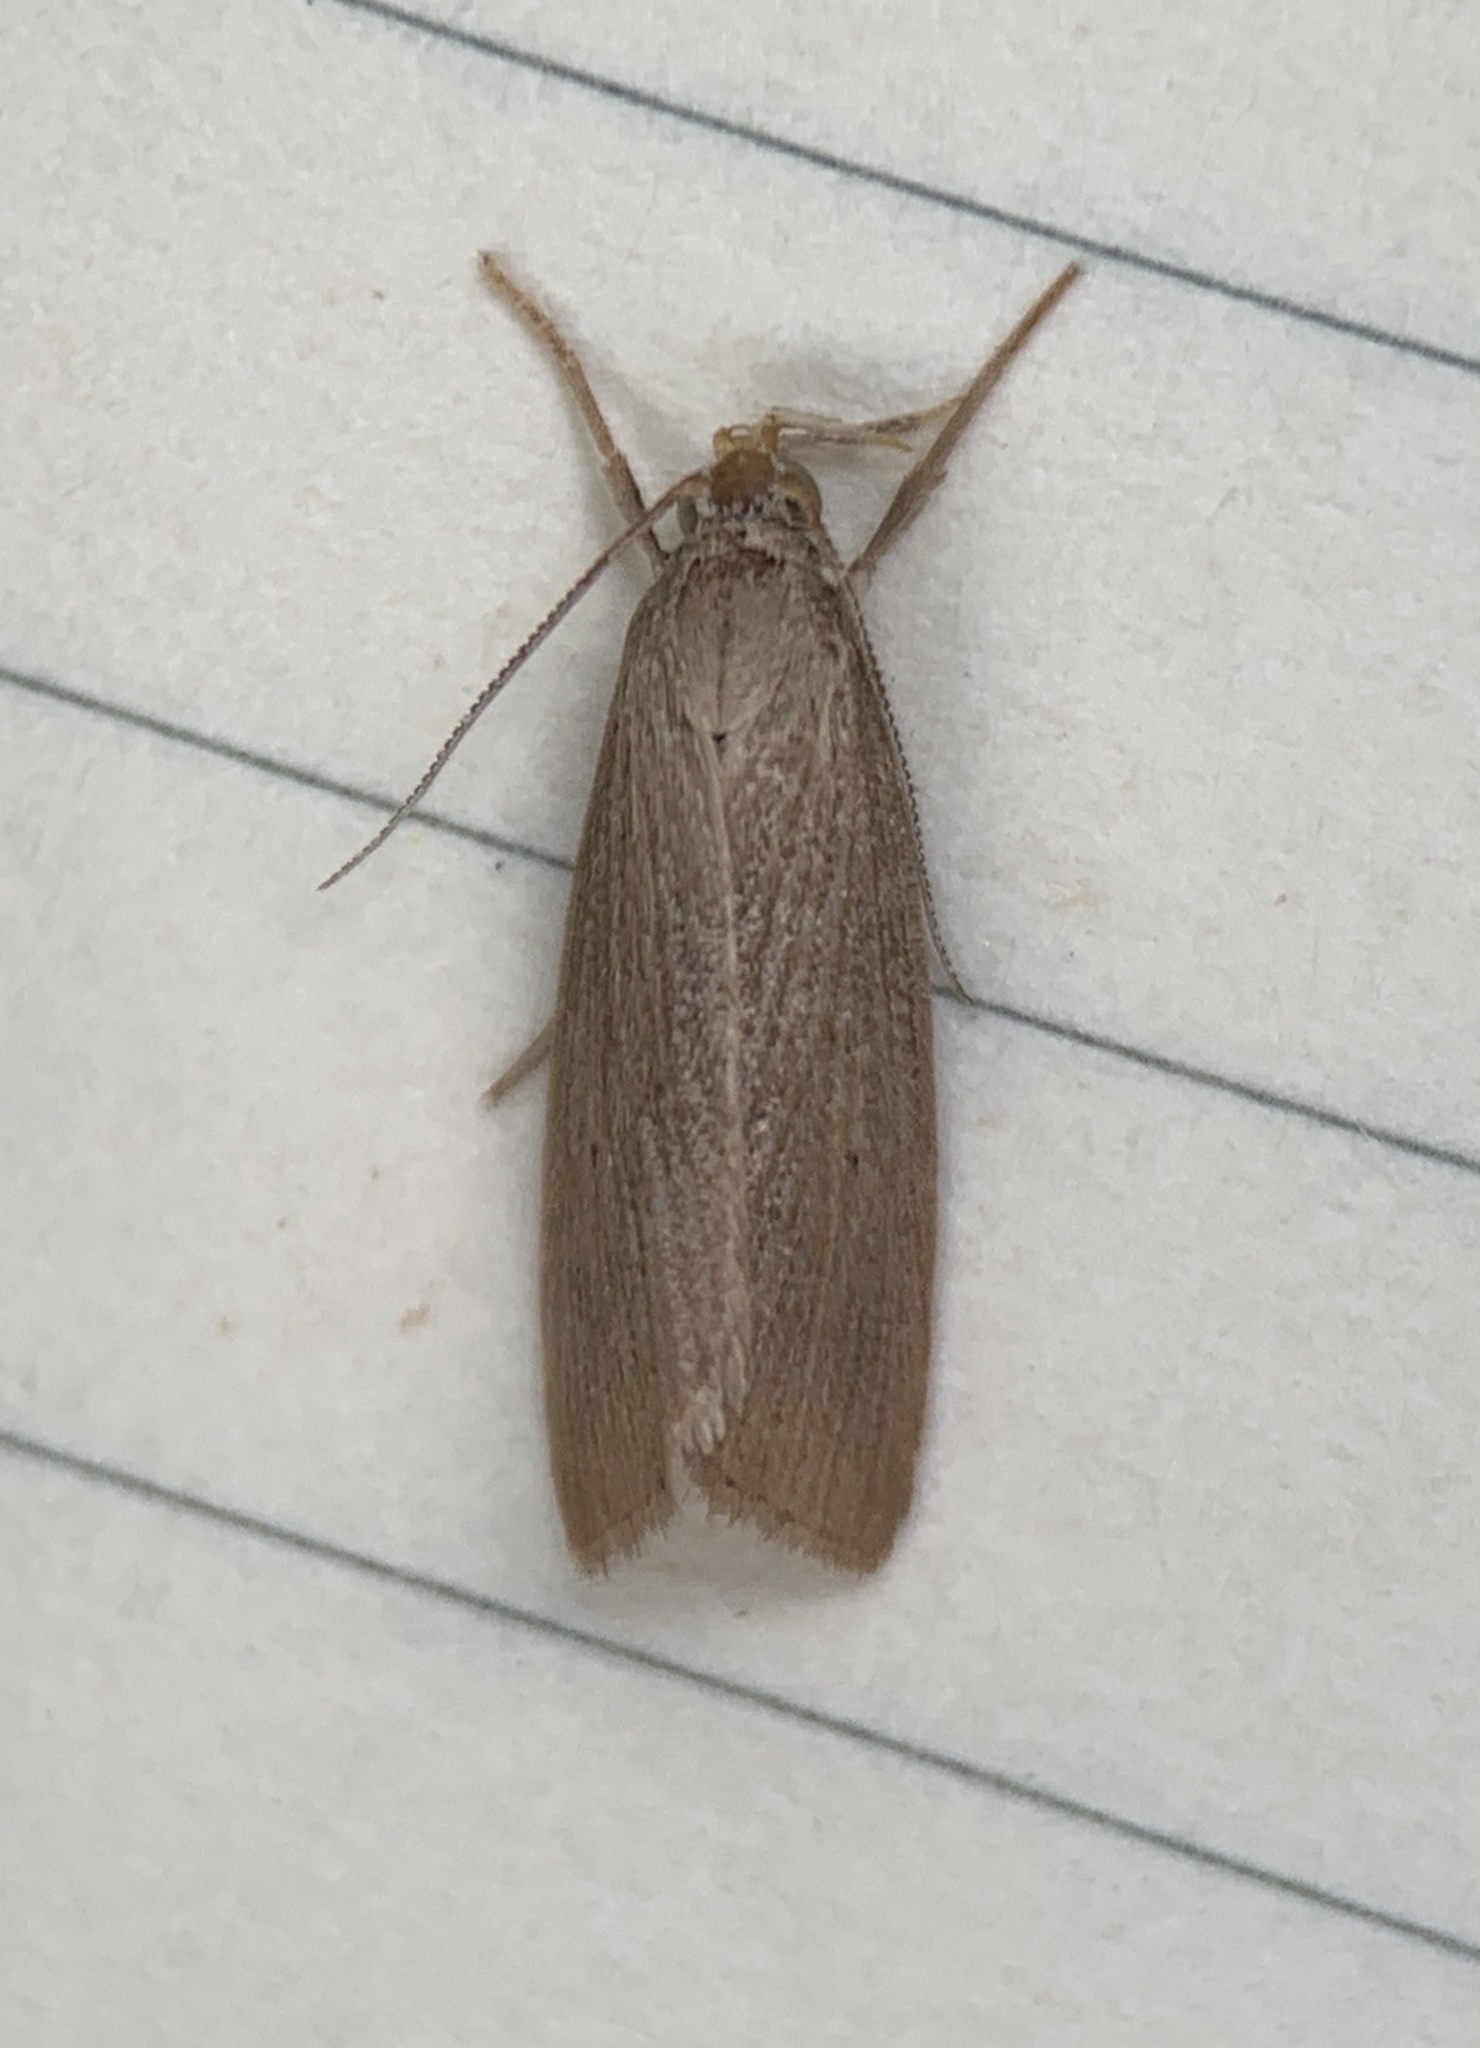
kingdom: Animalia
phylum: Arthropoda
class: Insecta
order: Lepidoptera
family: Crambidae
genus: Diatraea
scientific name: Diatraea evanescens
